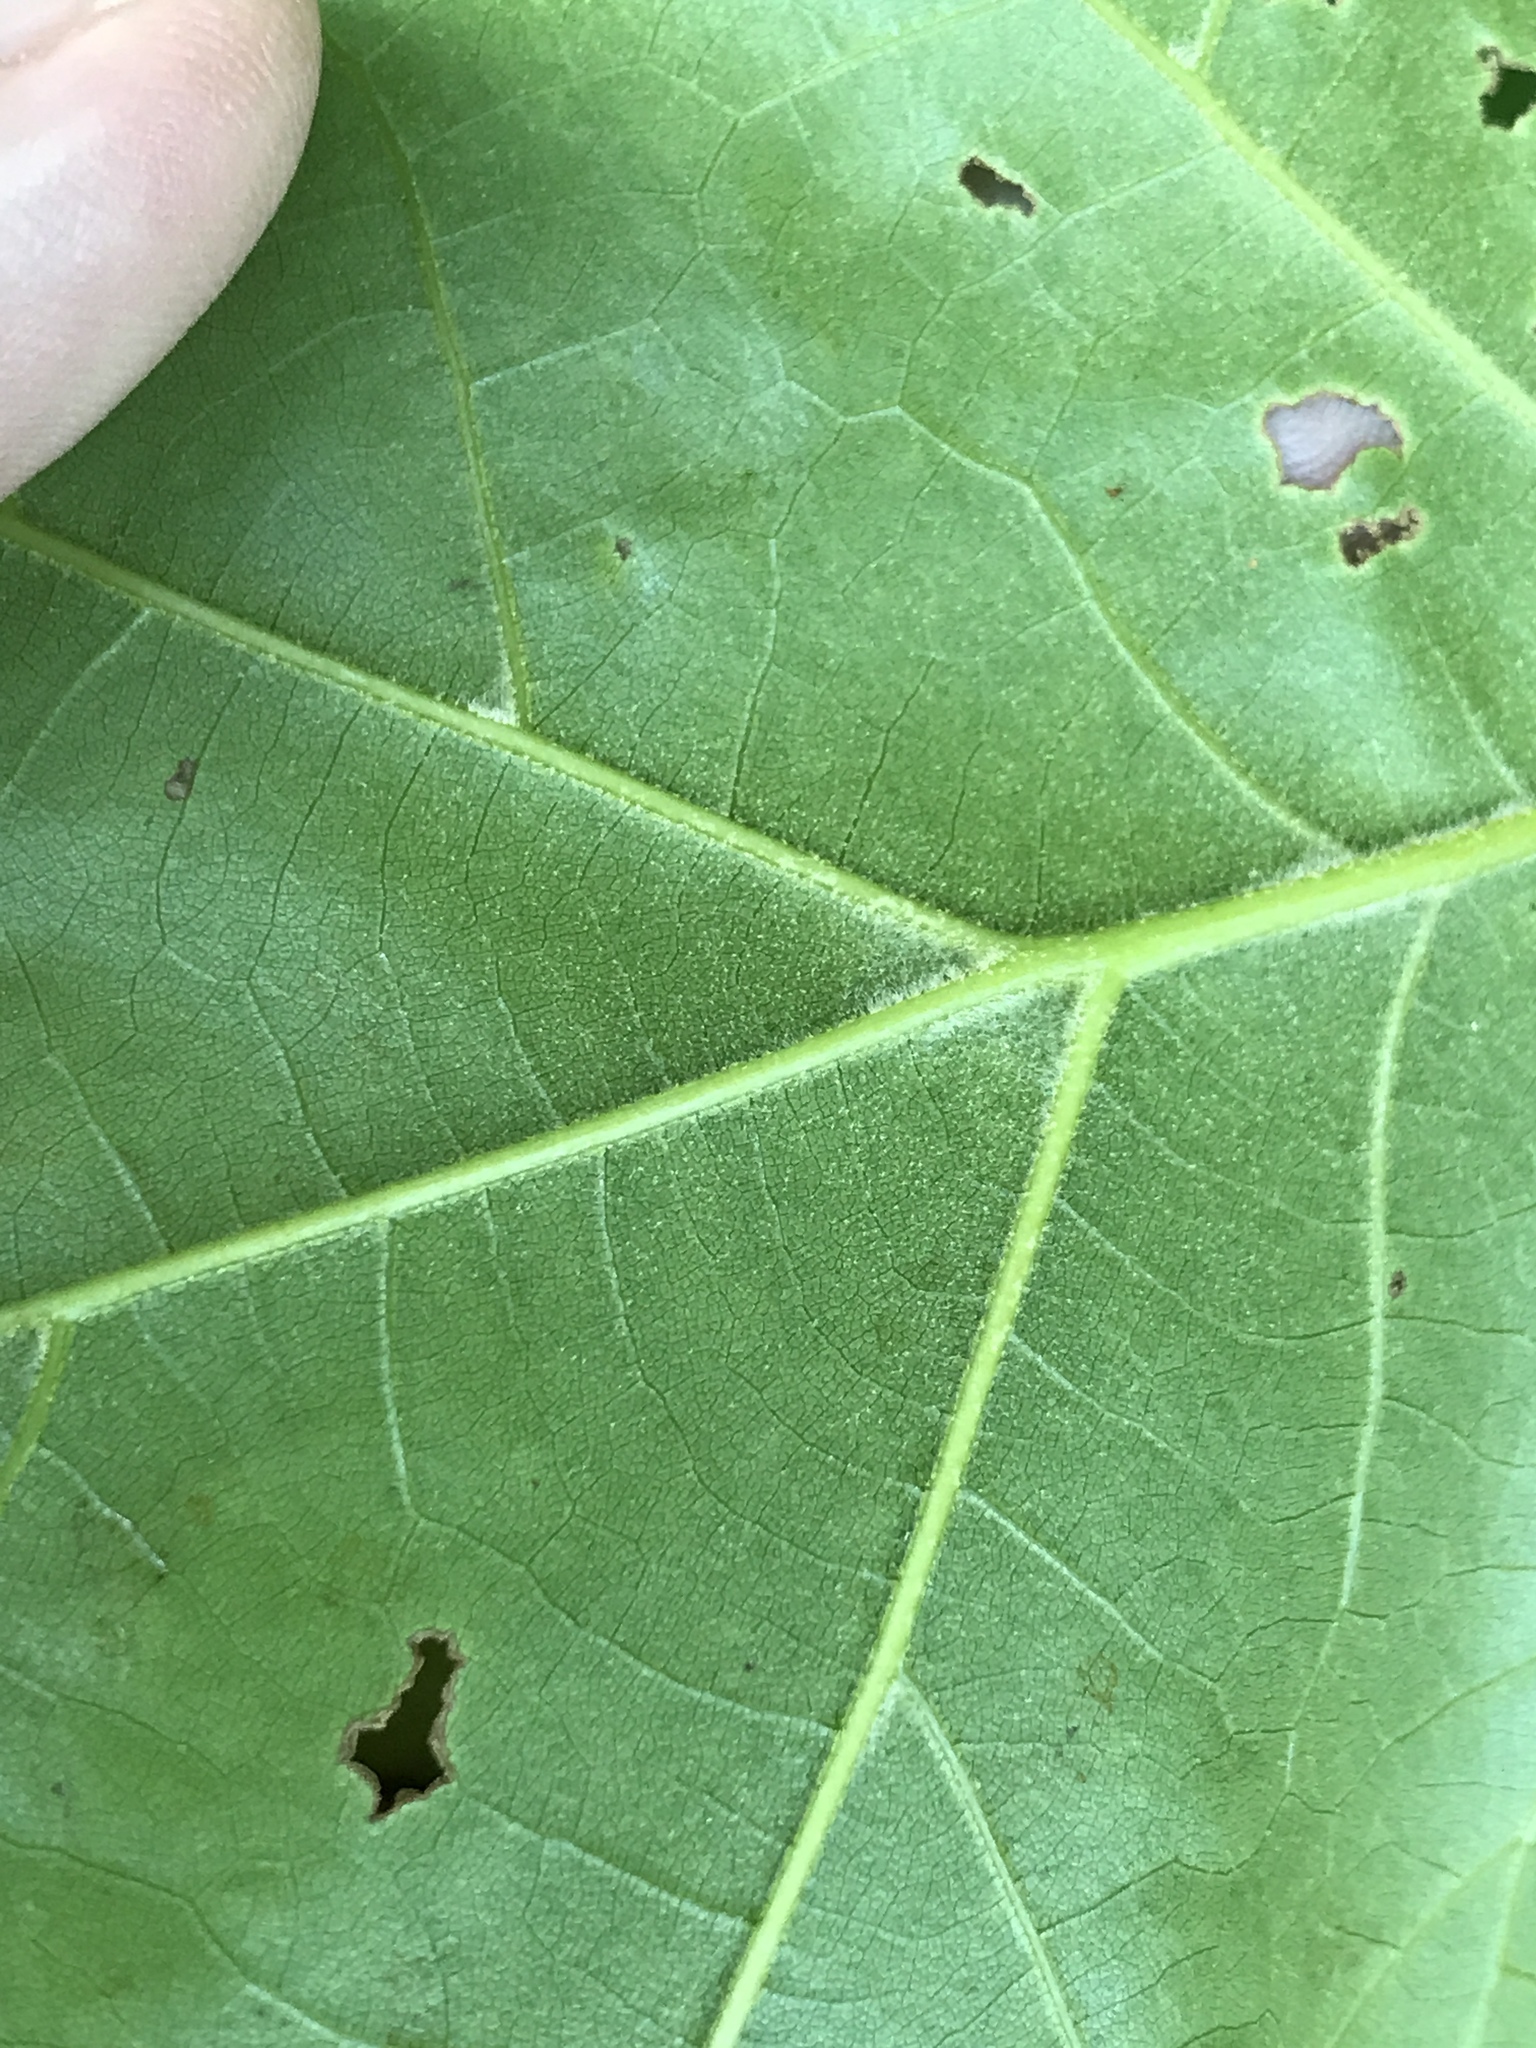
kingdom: Plantae
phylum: Tracheophyta
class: Magnoliopsida
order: Fagales
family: Fagaceae
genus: Quercus
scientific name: Quercus velutina
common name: Black oak
